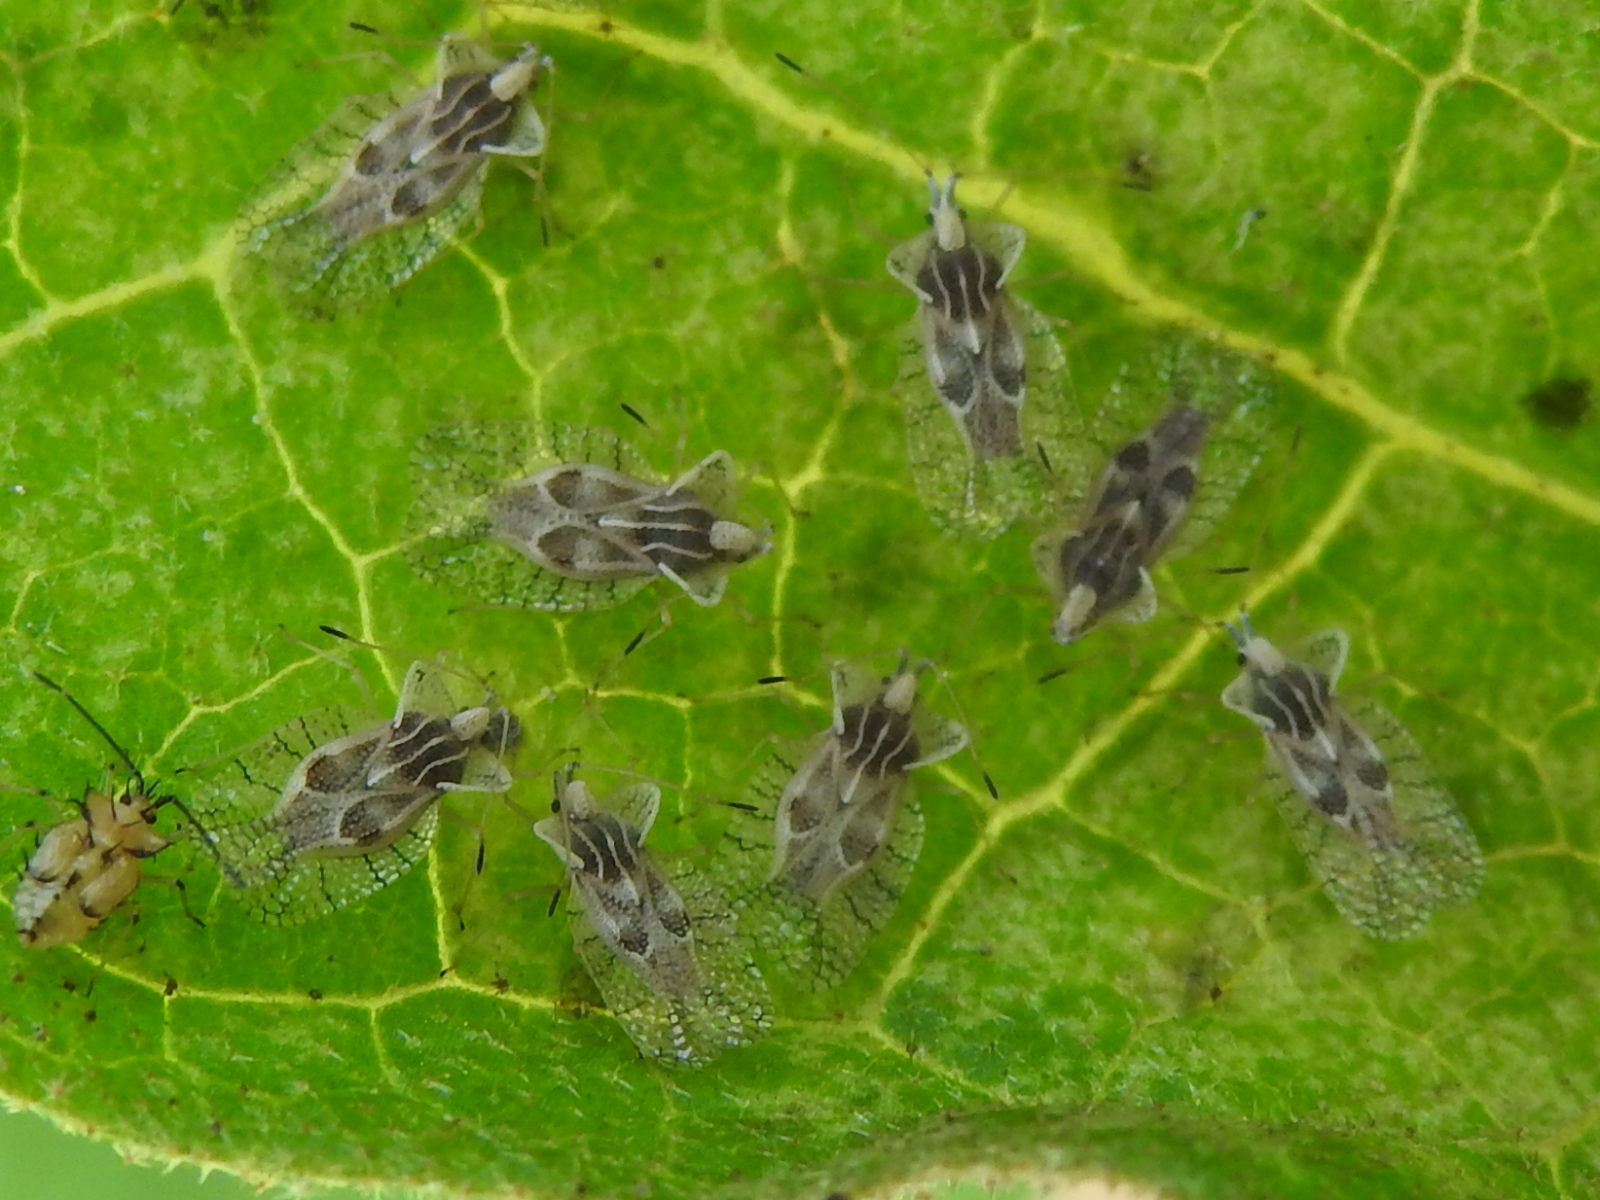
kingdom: Animalia
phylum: Arthropoda
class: Insecta
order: Hemiptera
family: Tingidae
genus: Gargaphia
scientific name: Gargaphia solani
